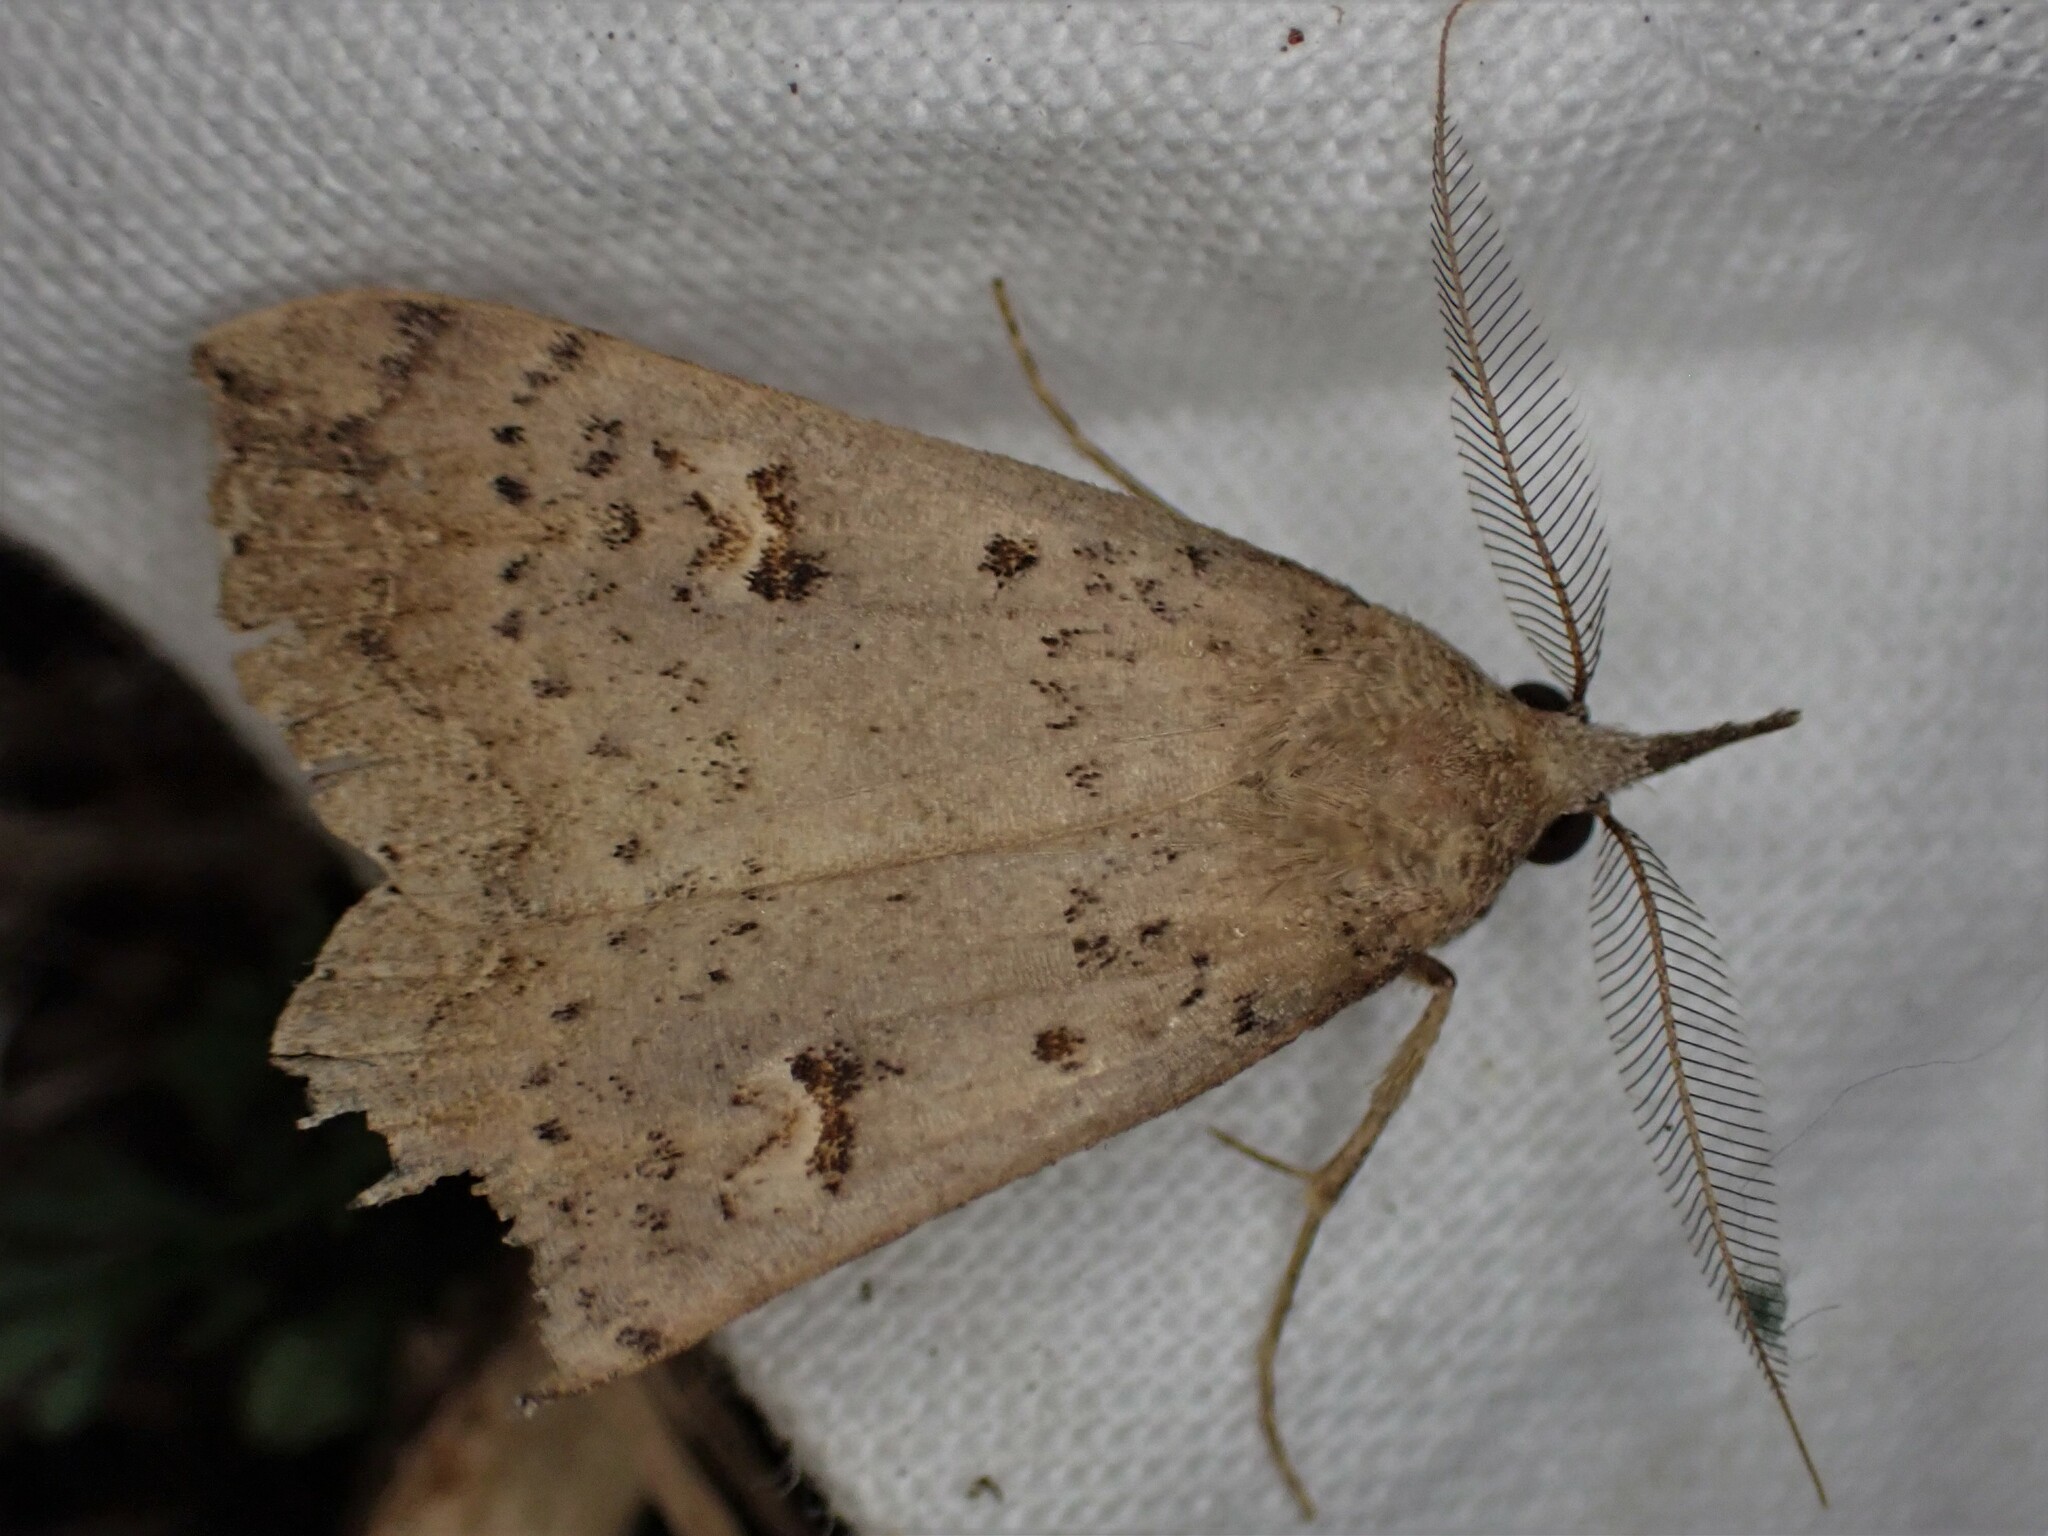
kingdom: Animalia
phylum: Arthropoda
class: Insecta
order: Lepidoptera
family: Erebidae
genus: Rhapsa
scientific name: Rhapsa scotosialis
